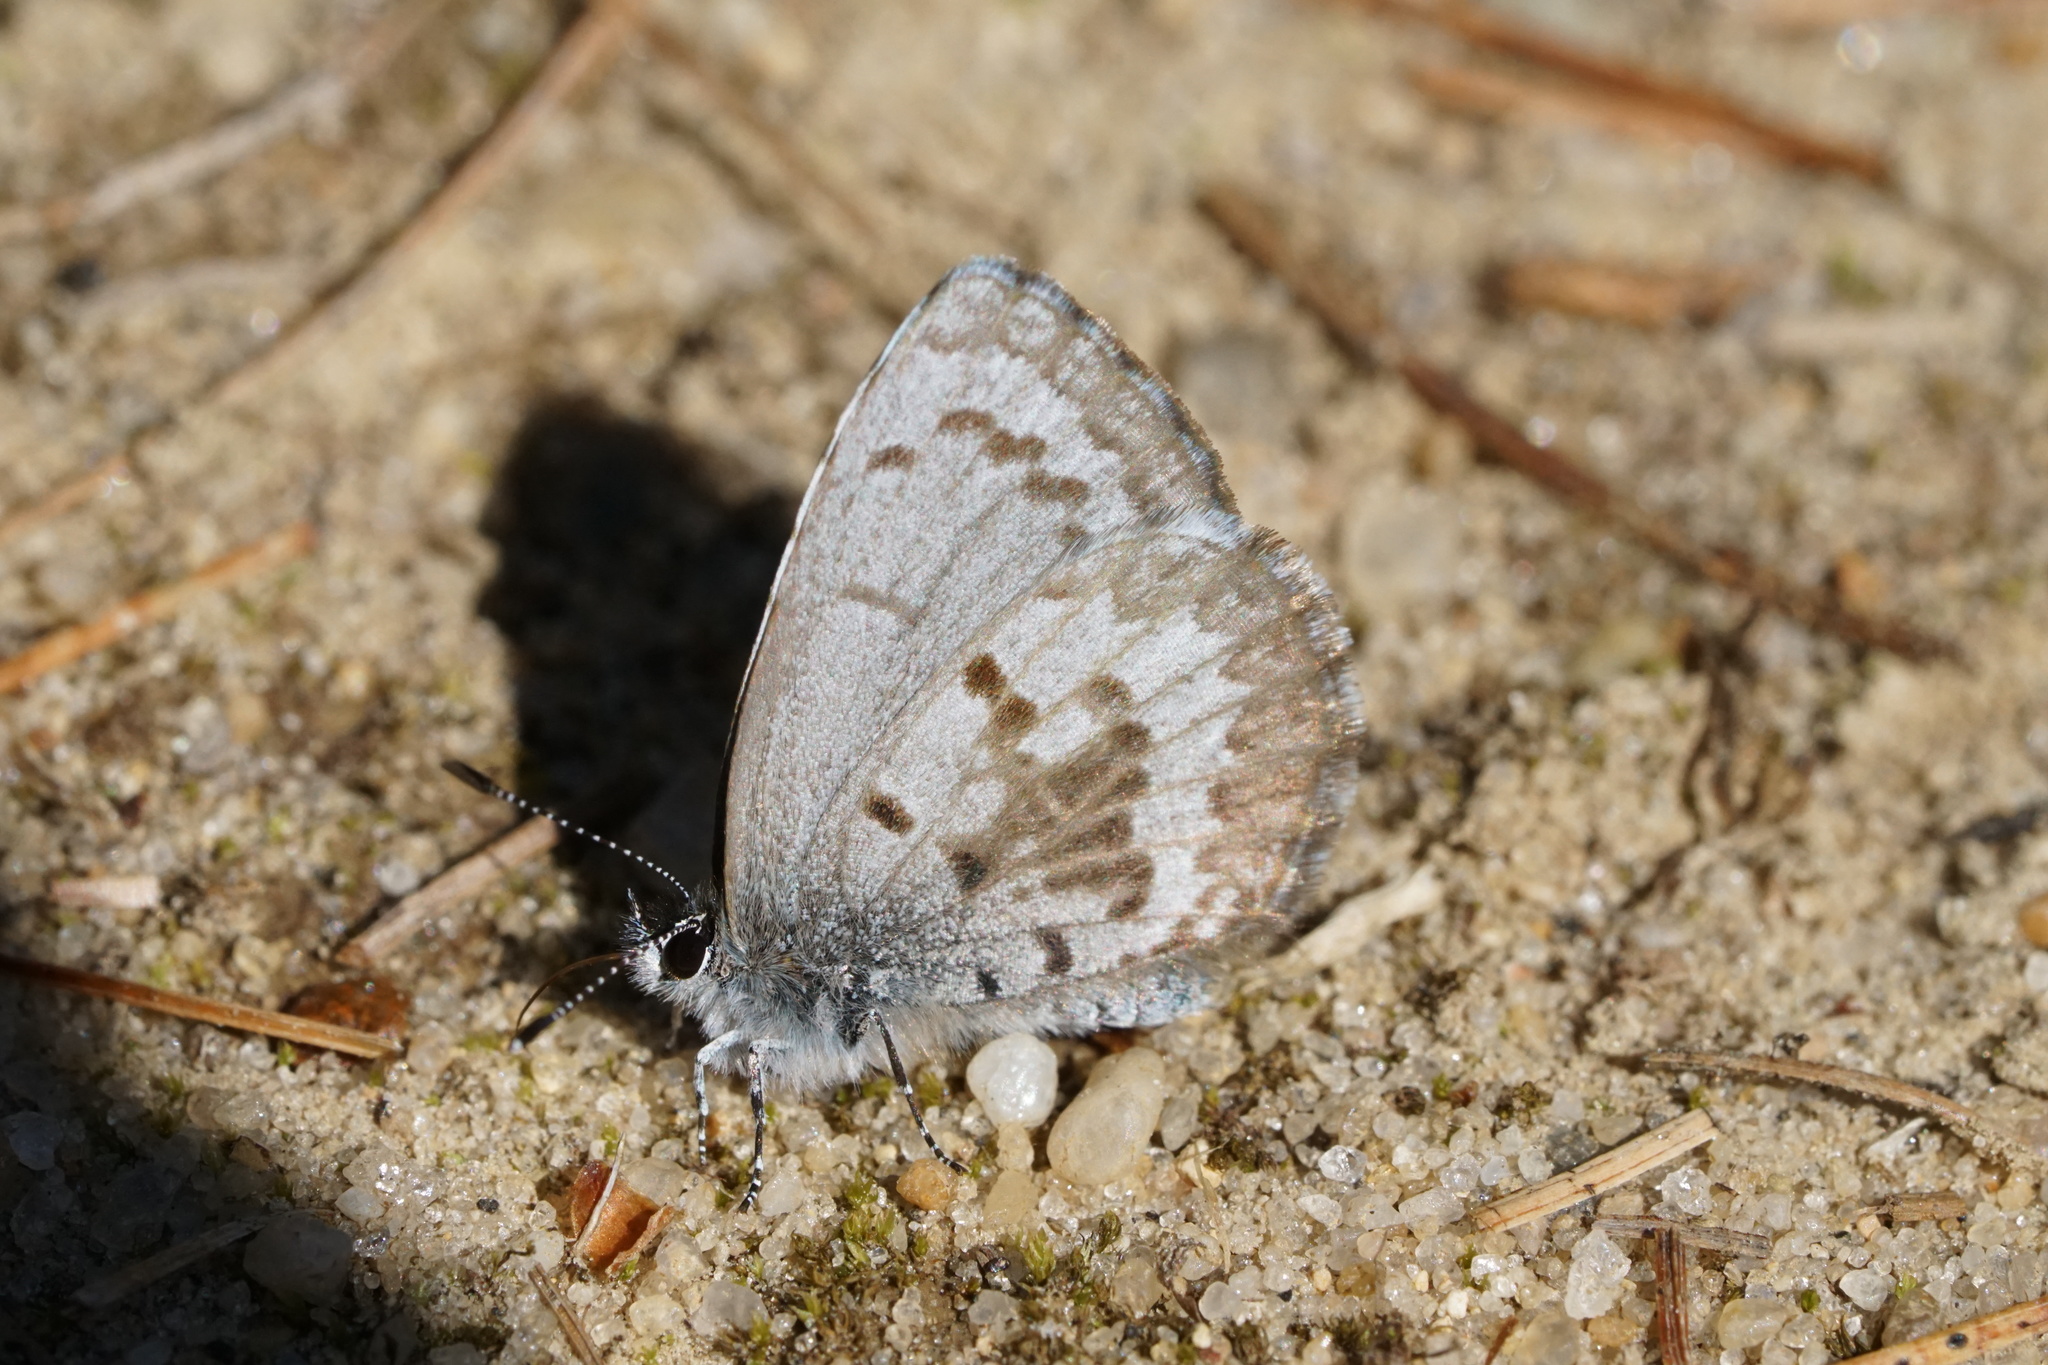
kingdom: Animalia
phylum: Arthropoda
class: Insecta
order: Lepidoptera
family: Lycaenidae
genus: Celastrina
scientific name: Celastrina ladon
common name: Spring azure
